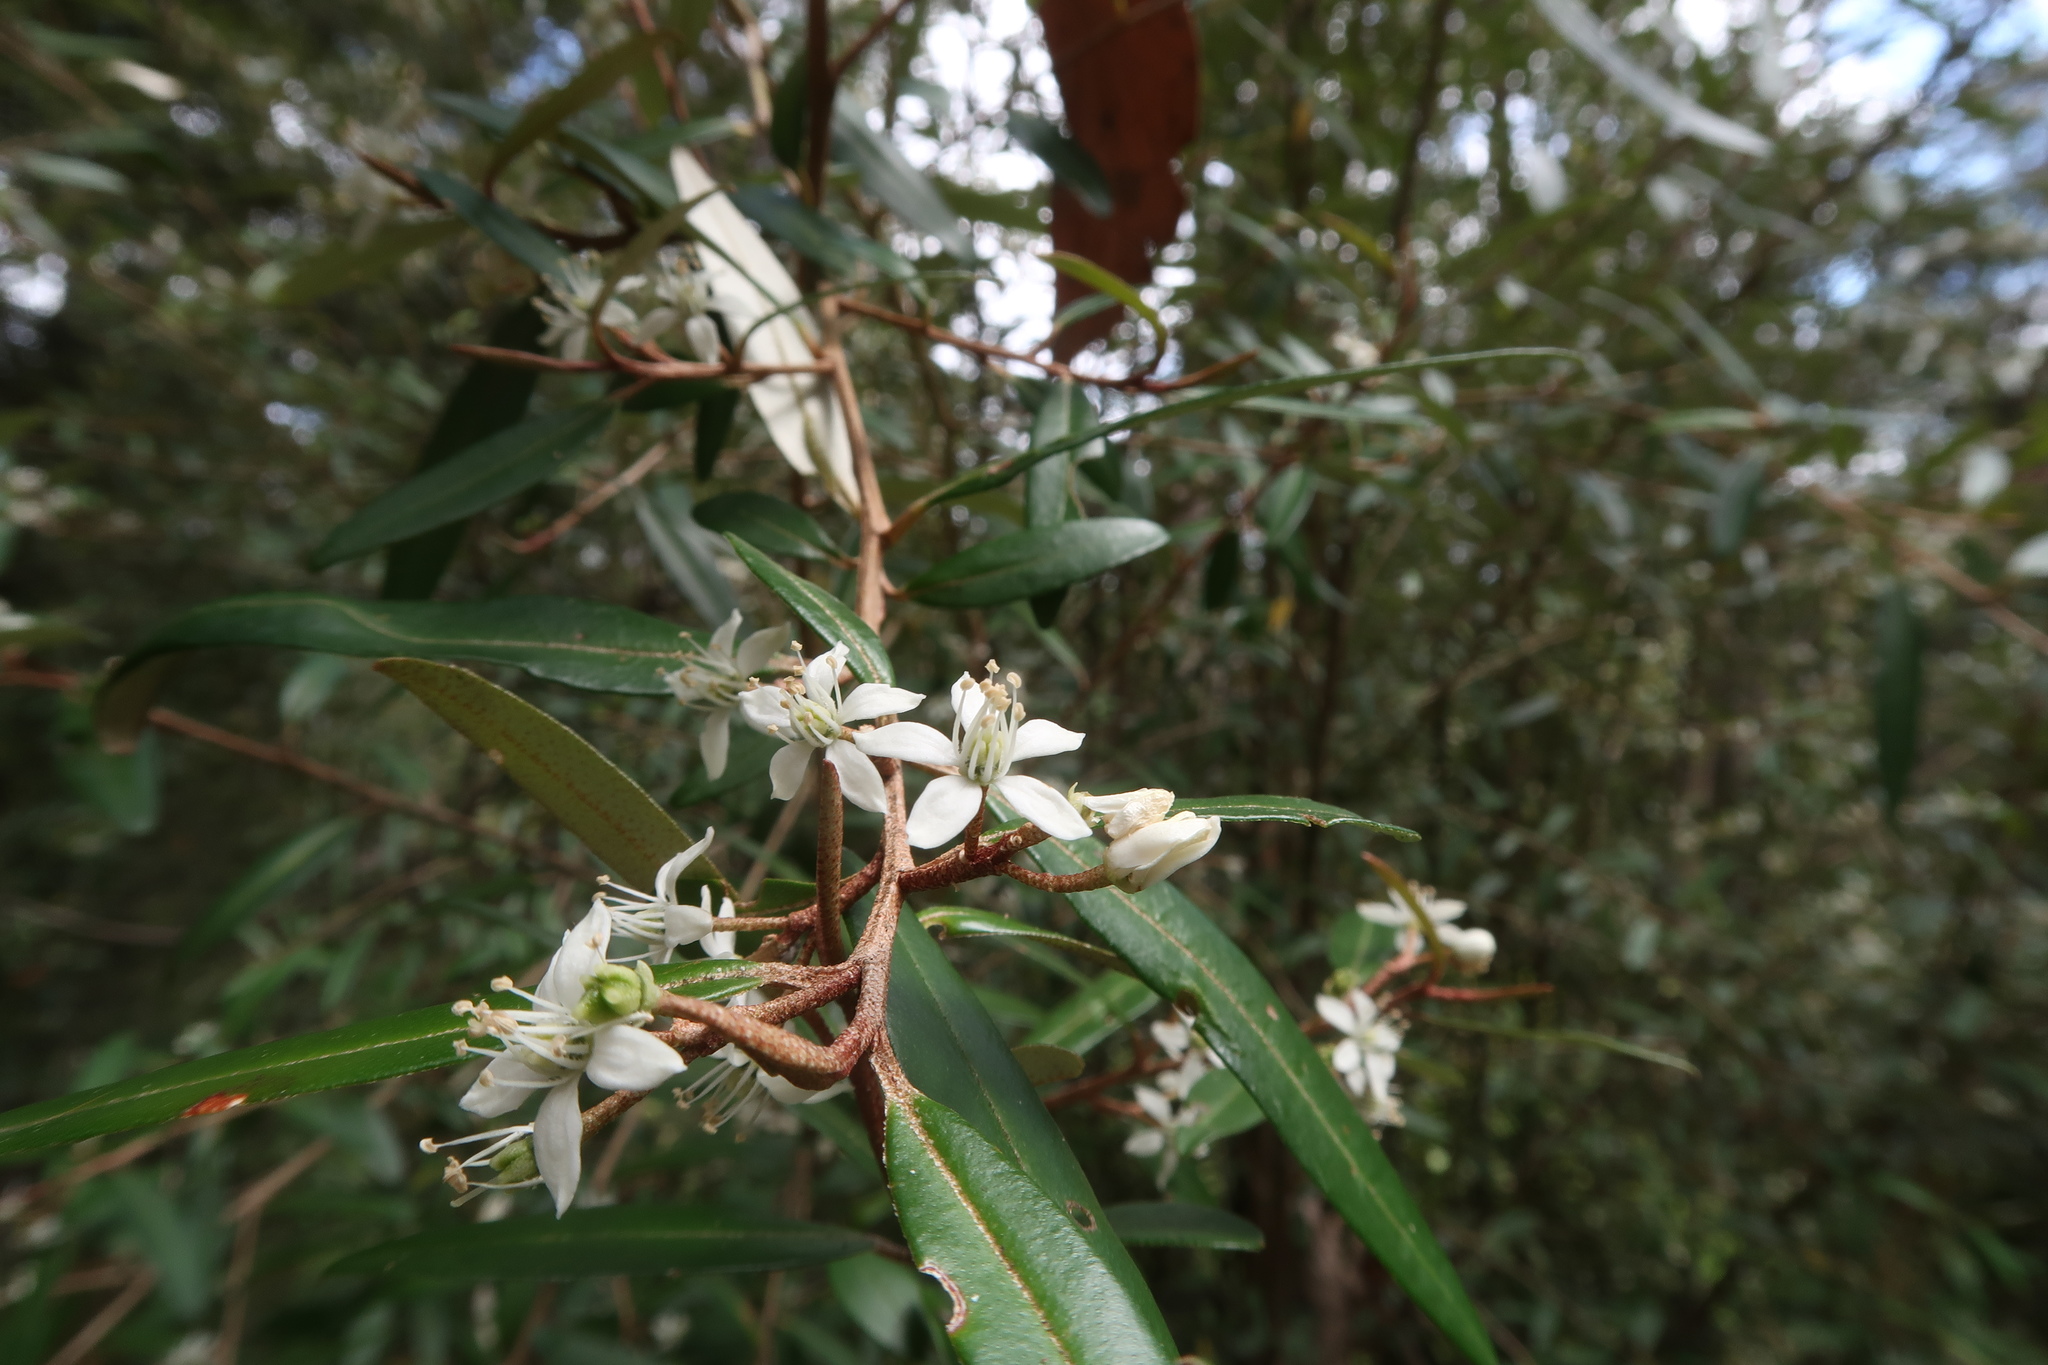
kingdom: Plantae
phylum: Tracheophyta
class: Magnoliopsida
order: Sapindales
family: Rutaceae
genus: Nematolepis
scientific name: Nematolepis squamea
